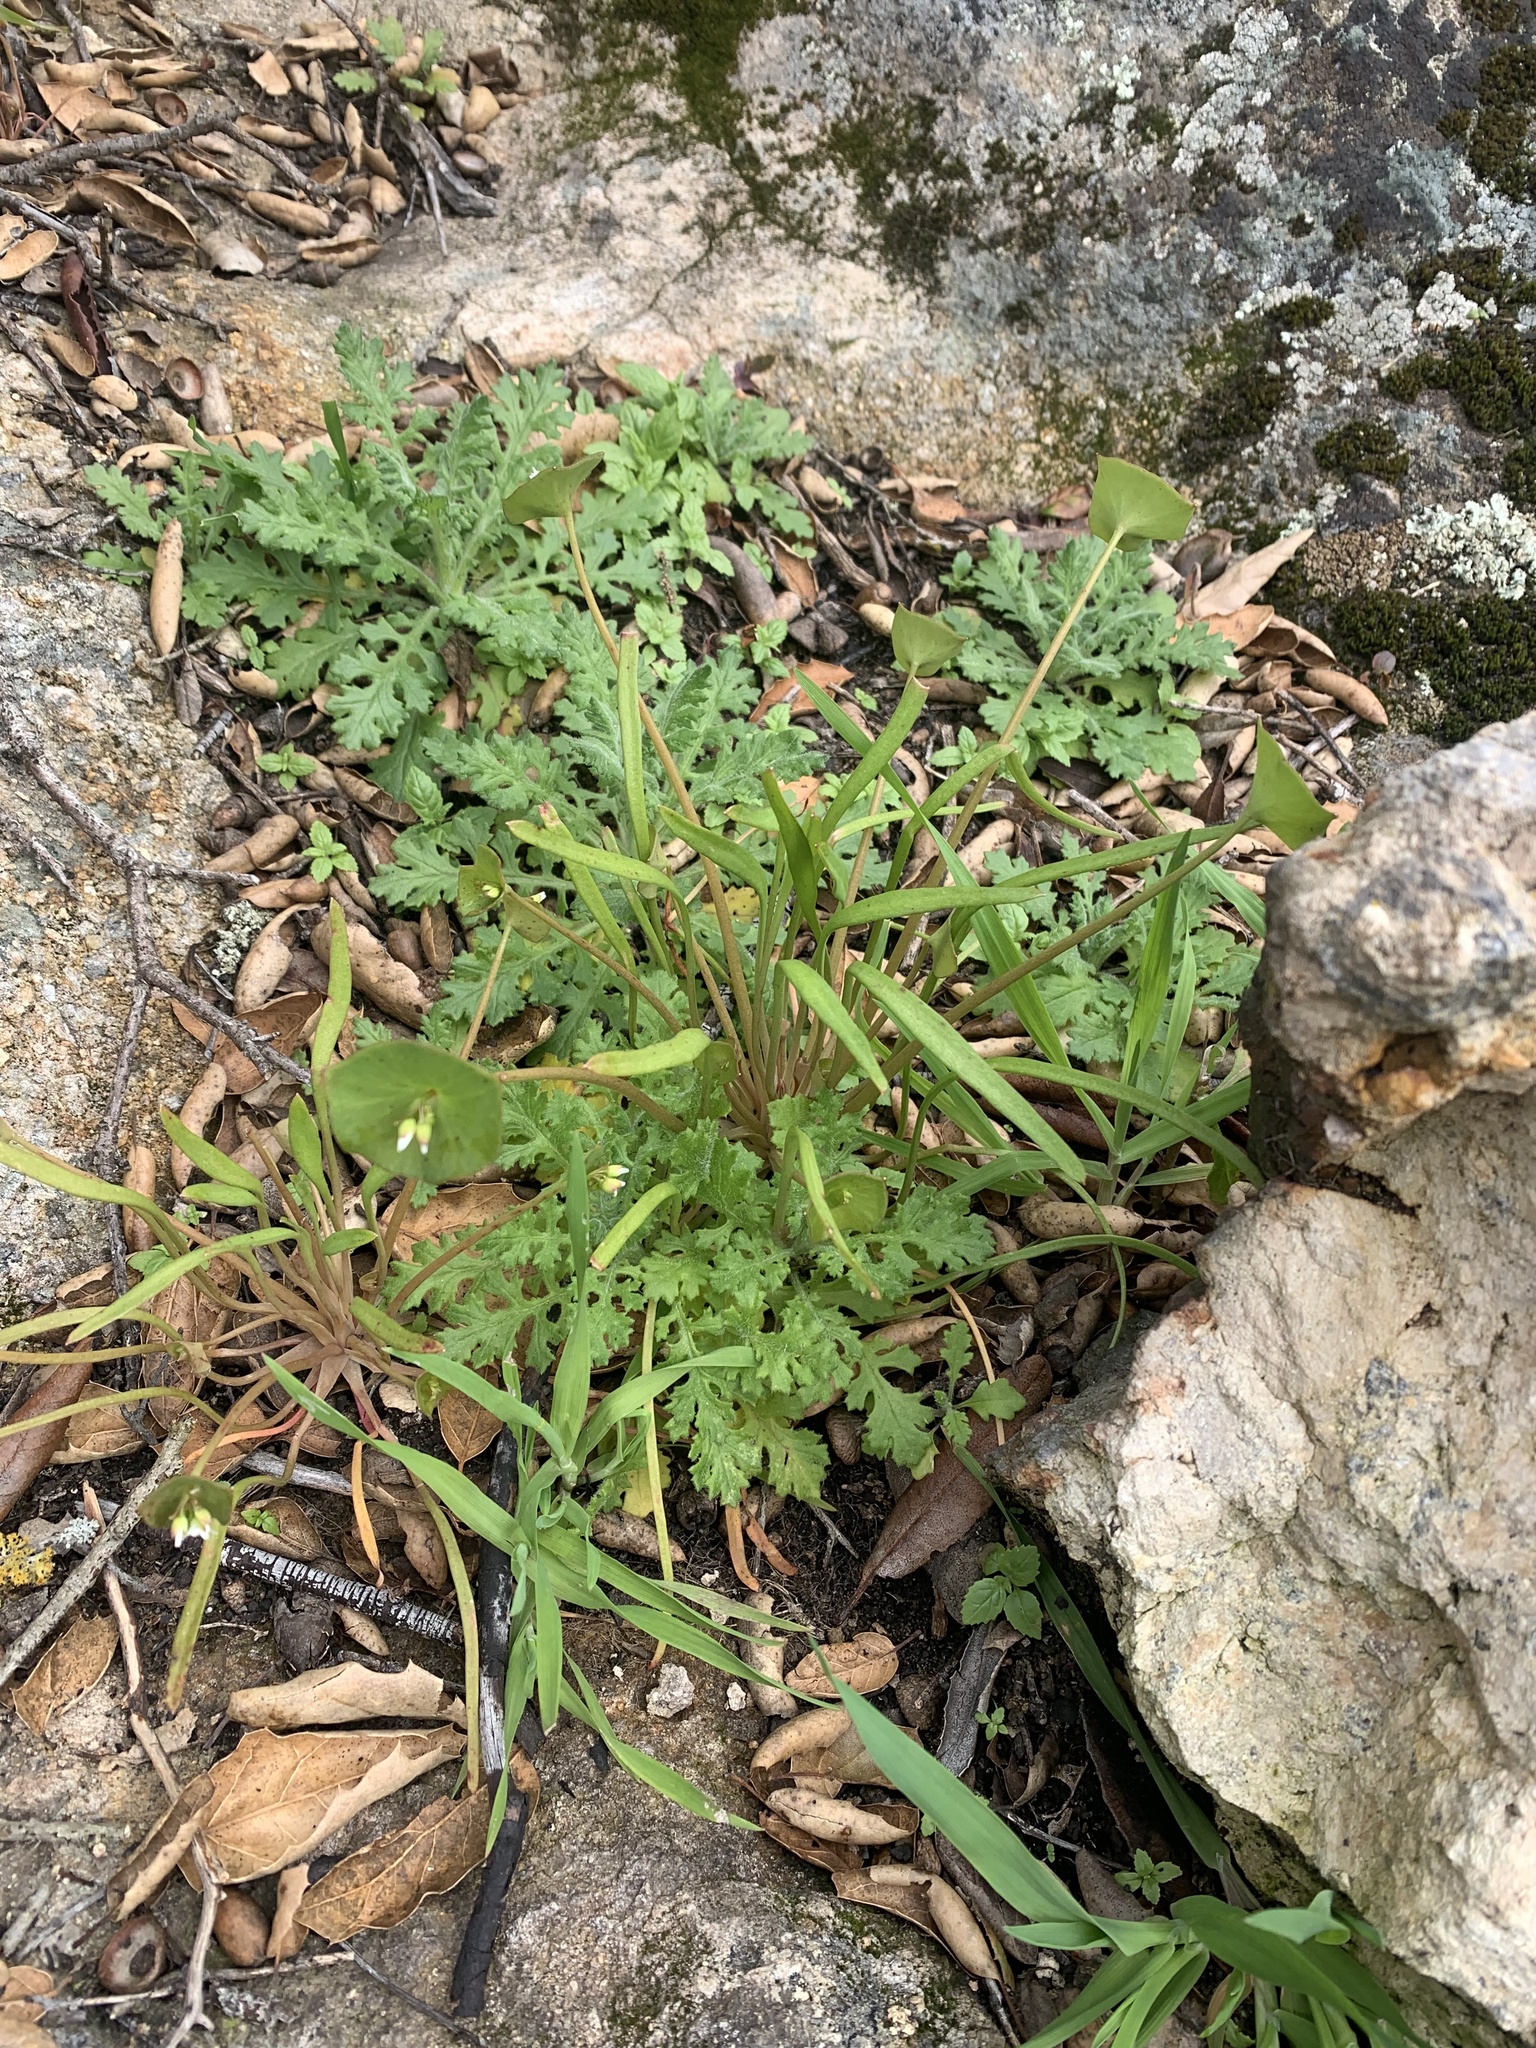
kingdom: Plantae
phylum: Tracheophyta
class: Magnoliopsida
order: Caryophyllales
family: Montiaceae
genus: Claytonia
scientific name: Claytonia parviflora
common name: Indian-lettuce
